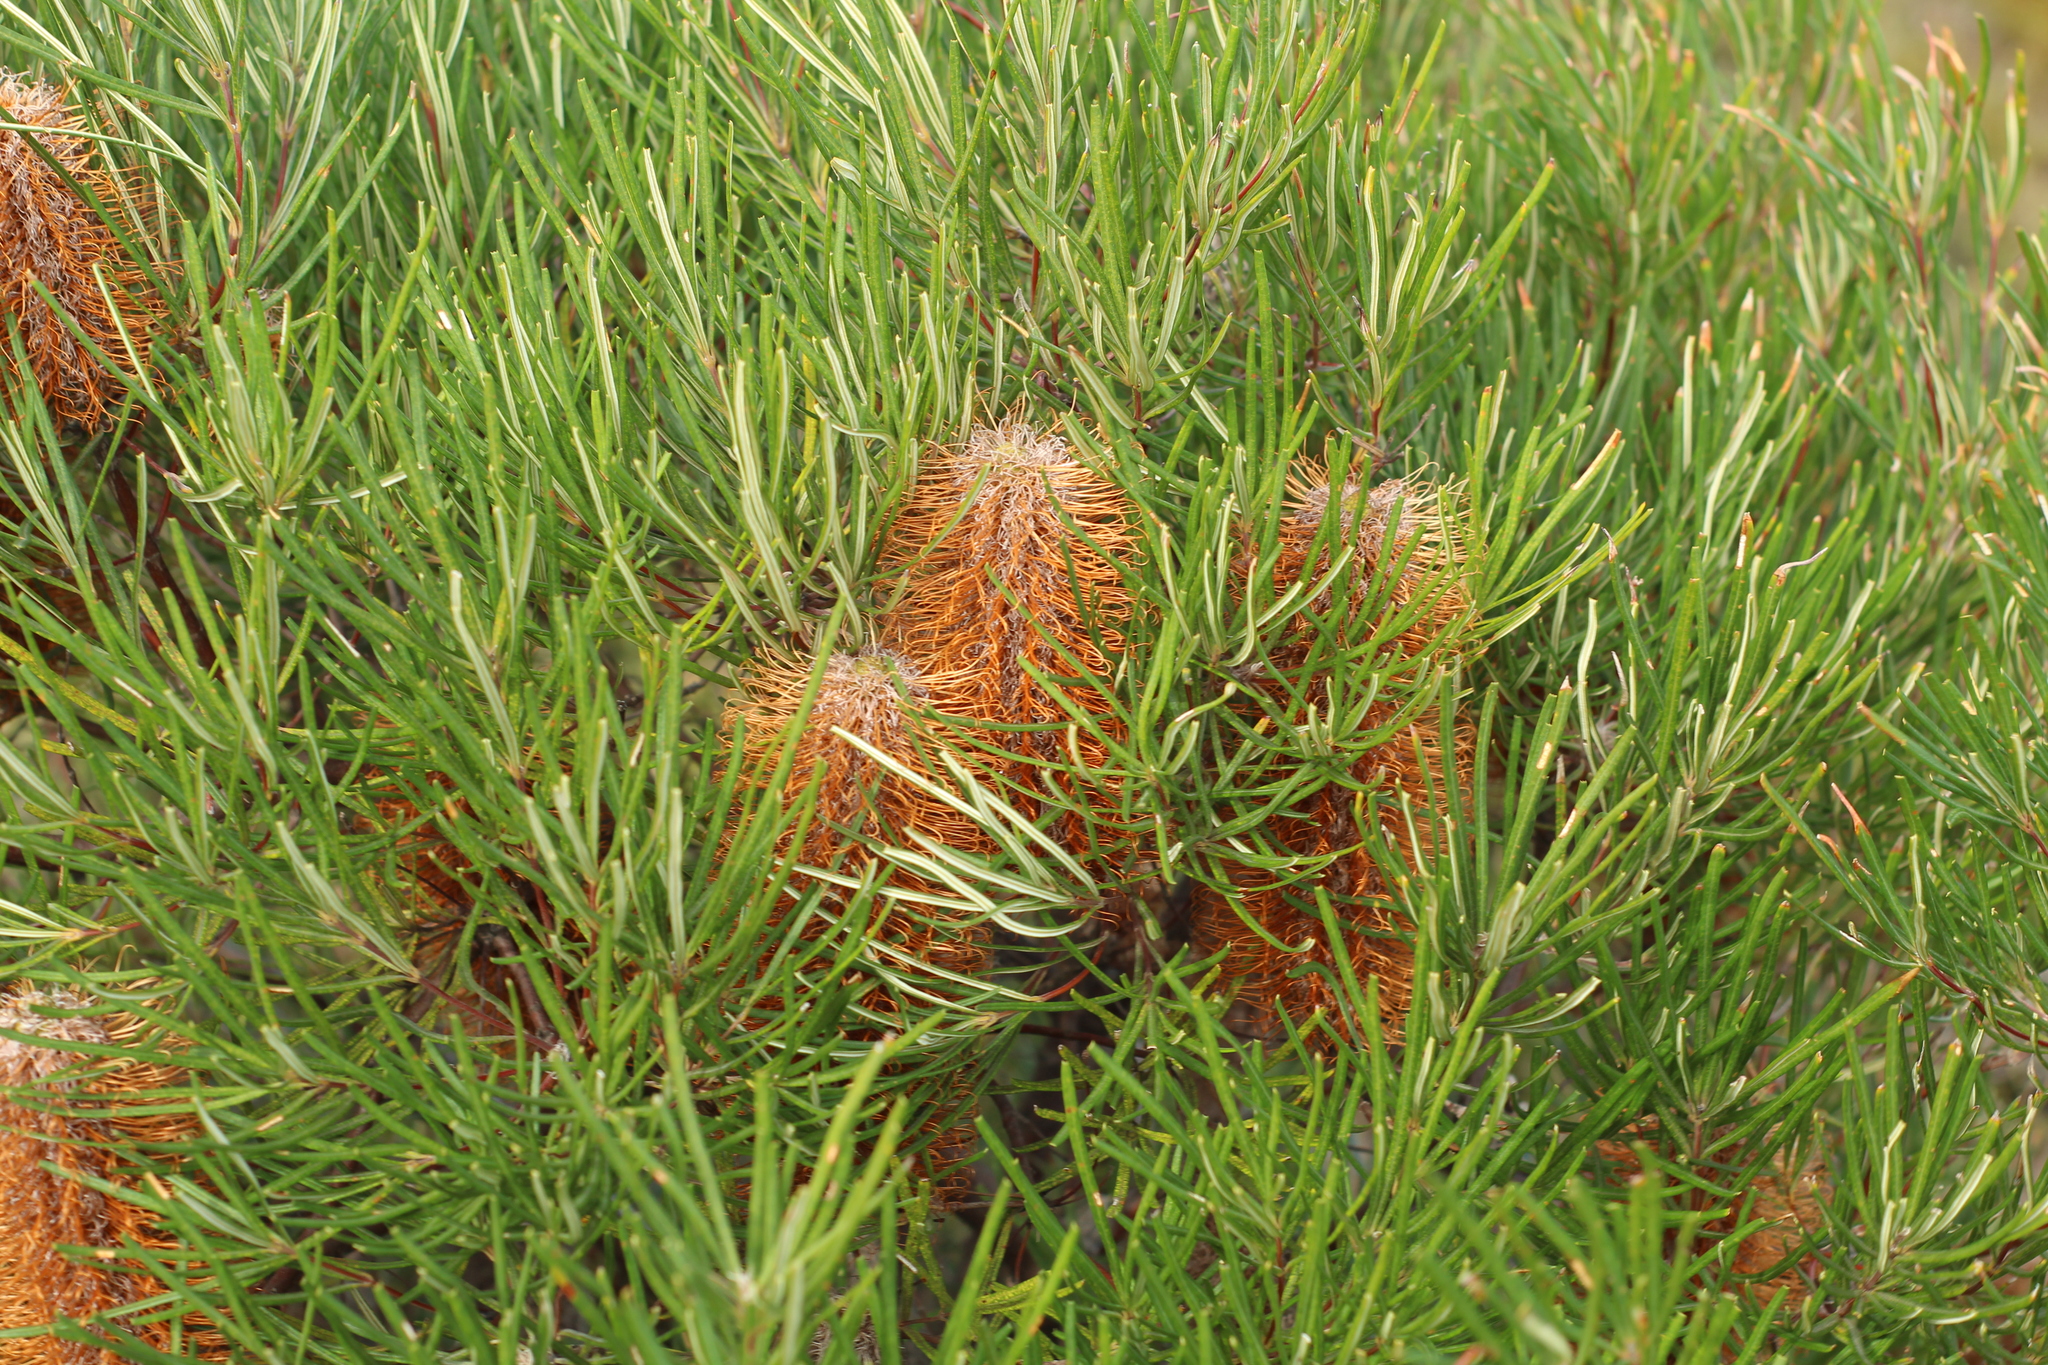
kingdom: Plantae
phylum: Tracheophyta
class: Magnoliopsida
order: Proteales
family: Proteaceae
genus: Banksia
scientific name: Banksia occidentalis
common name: Red swamp banksia
